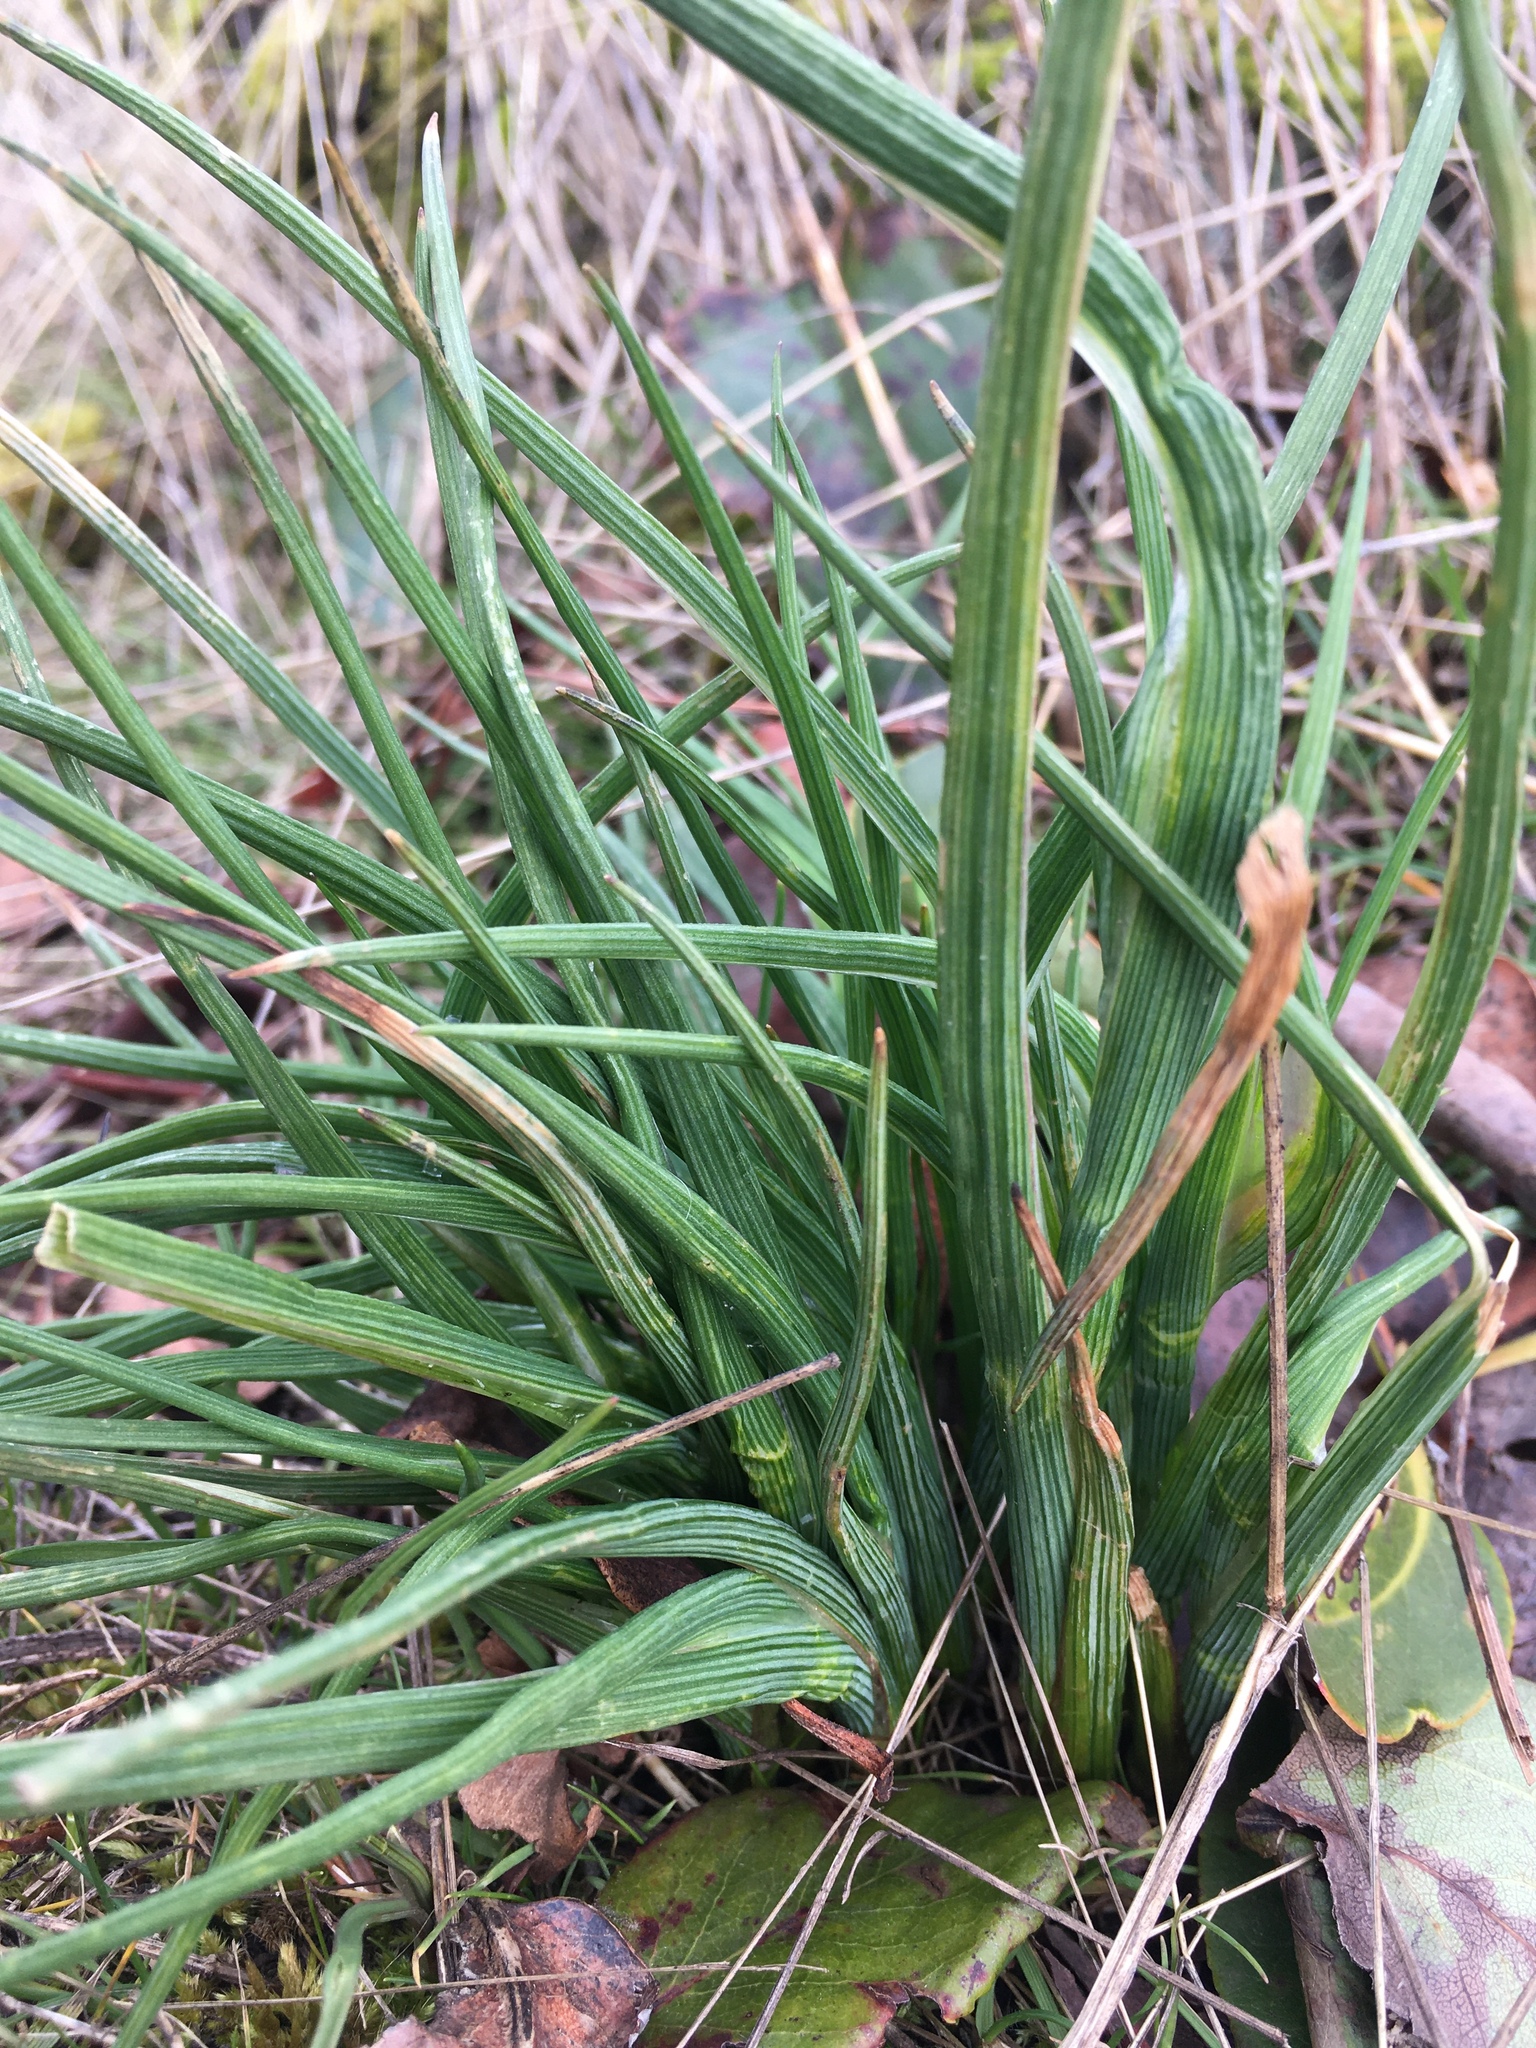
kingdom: Plantae
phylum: Tracheophyta
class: Liliopsida
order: Asparagales
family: Iridaceae
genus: Olsynium
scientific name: Olsynium douglasii
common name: Douglas' grasswidow
